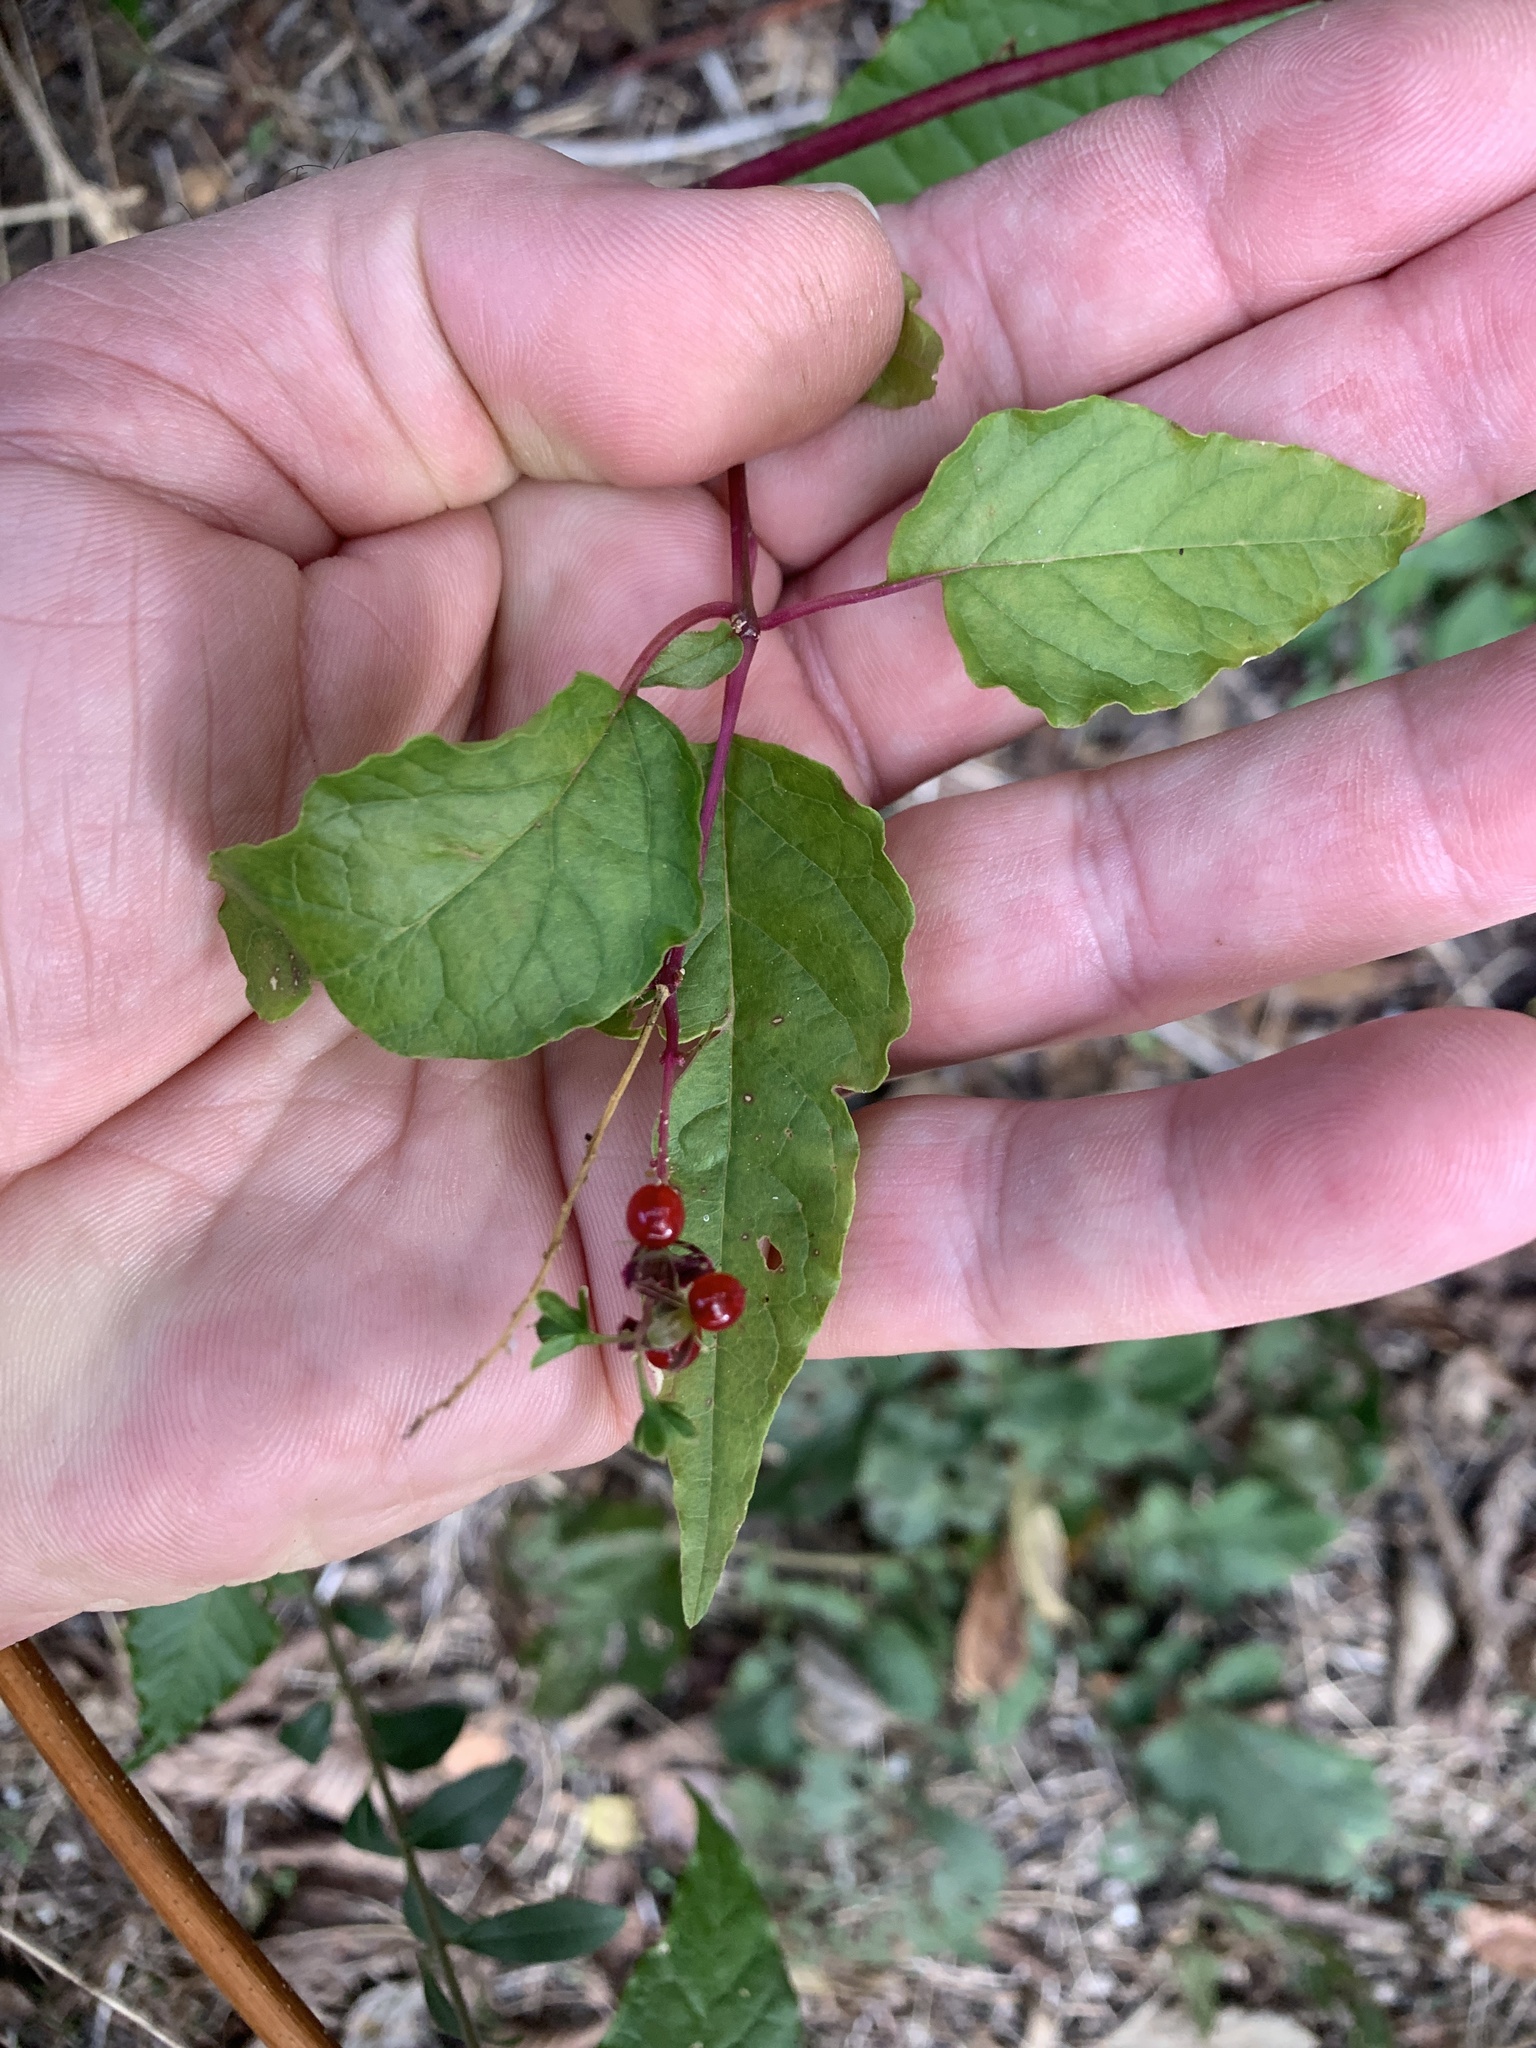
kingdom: Plantae
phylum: Tracheophyta
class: Magnoliopsida
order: Caryophyllales
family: Phytolaccaceae
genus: Rivina
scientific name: Rivina humilis
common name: Rougeplant
